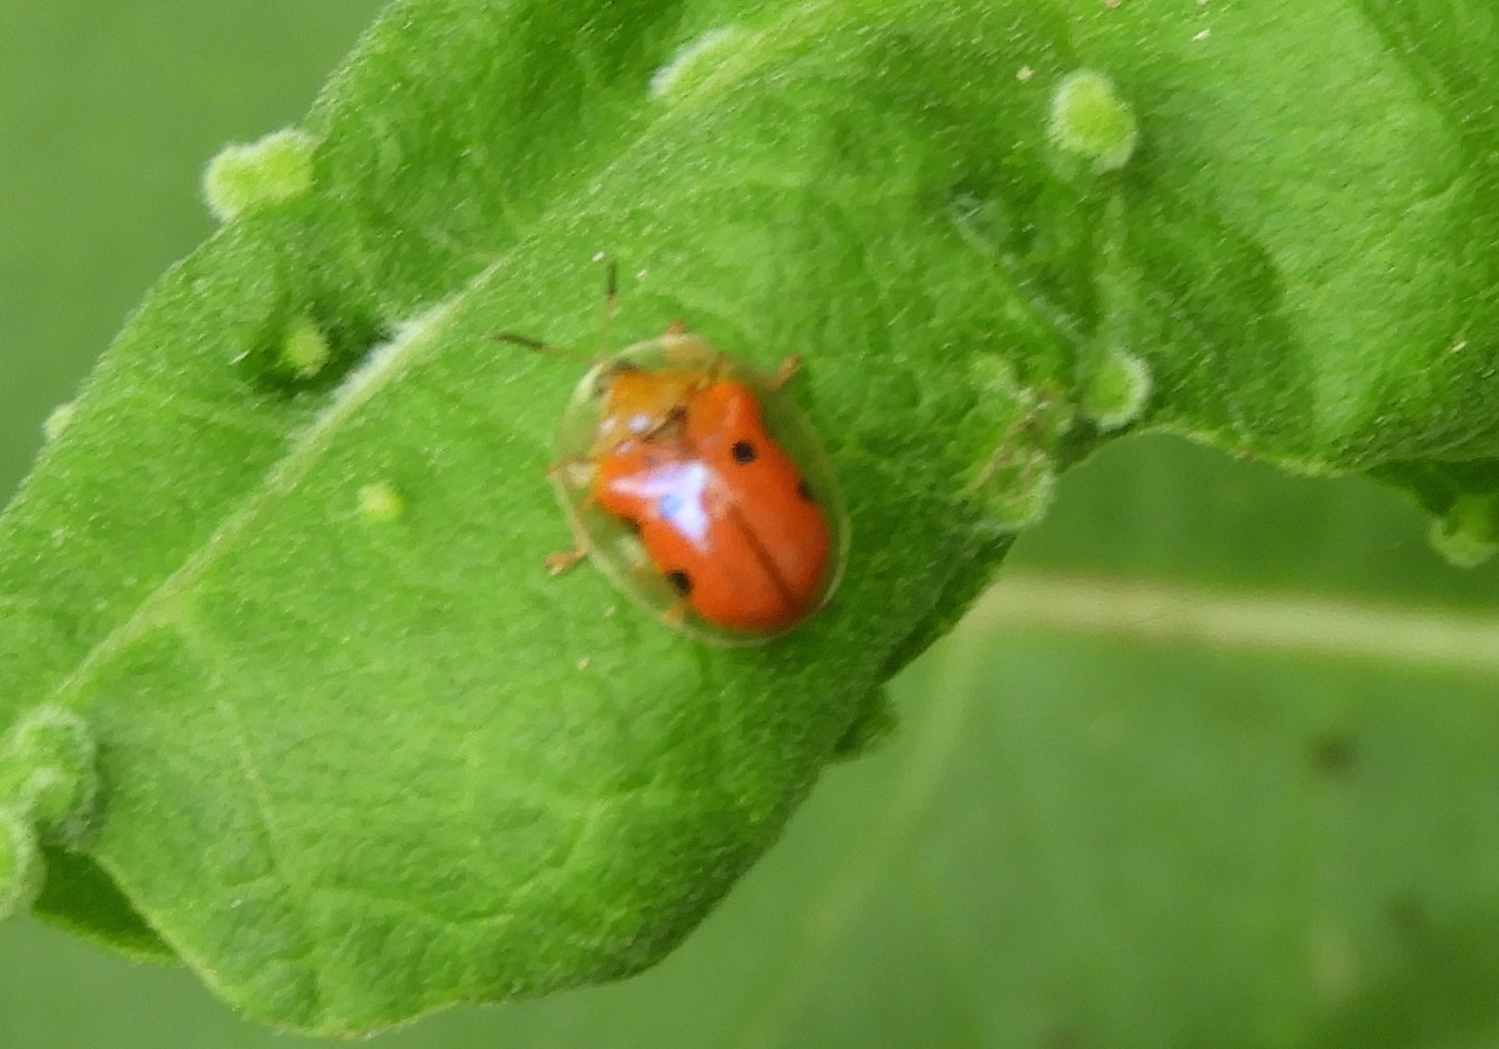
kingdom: Animalia
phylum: Arthropoda
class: Insecta
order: Coleoptera
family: Chrysomelidae
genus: Charidotella
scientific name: Charidotella sexpunctata
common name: Golden tortoise beetle
